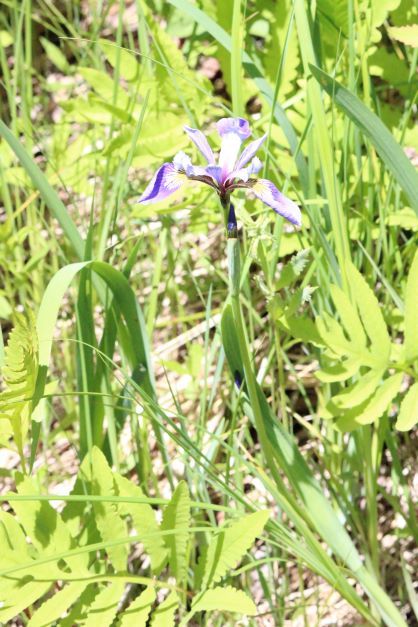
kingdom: Plantae
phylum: Tracheophyta
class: Liliopsida
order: Asparagales
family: Iridaceae
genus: Iris
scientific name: Iris versicolor
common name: Purple iris
